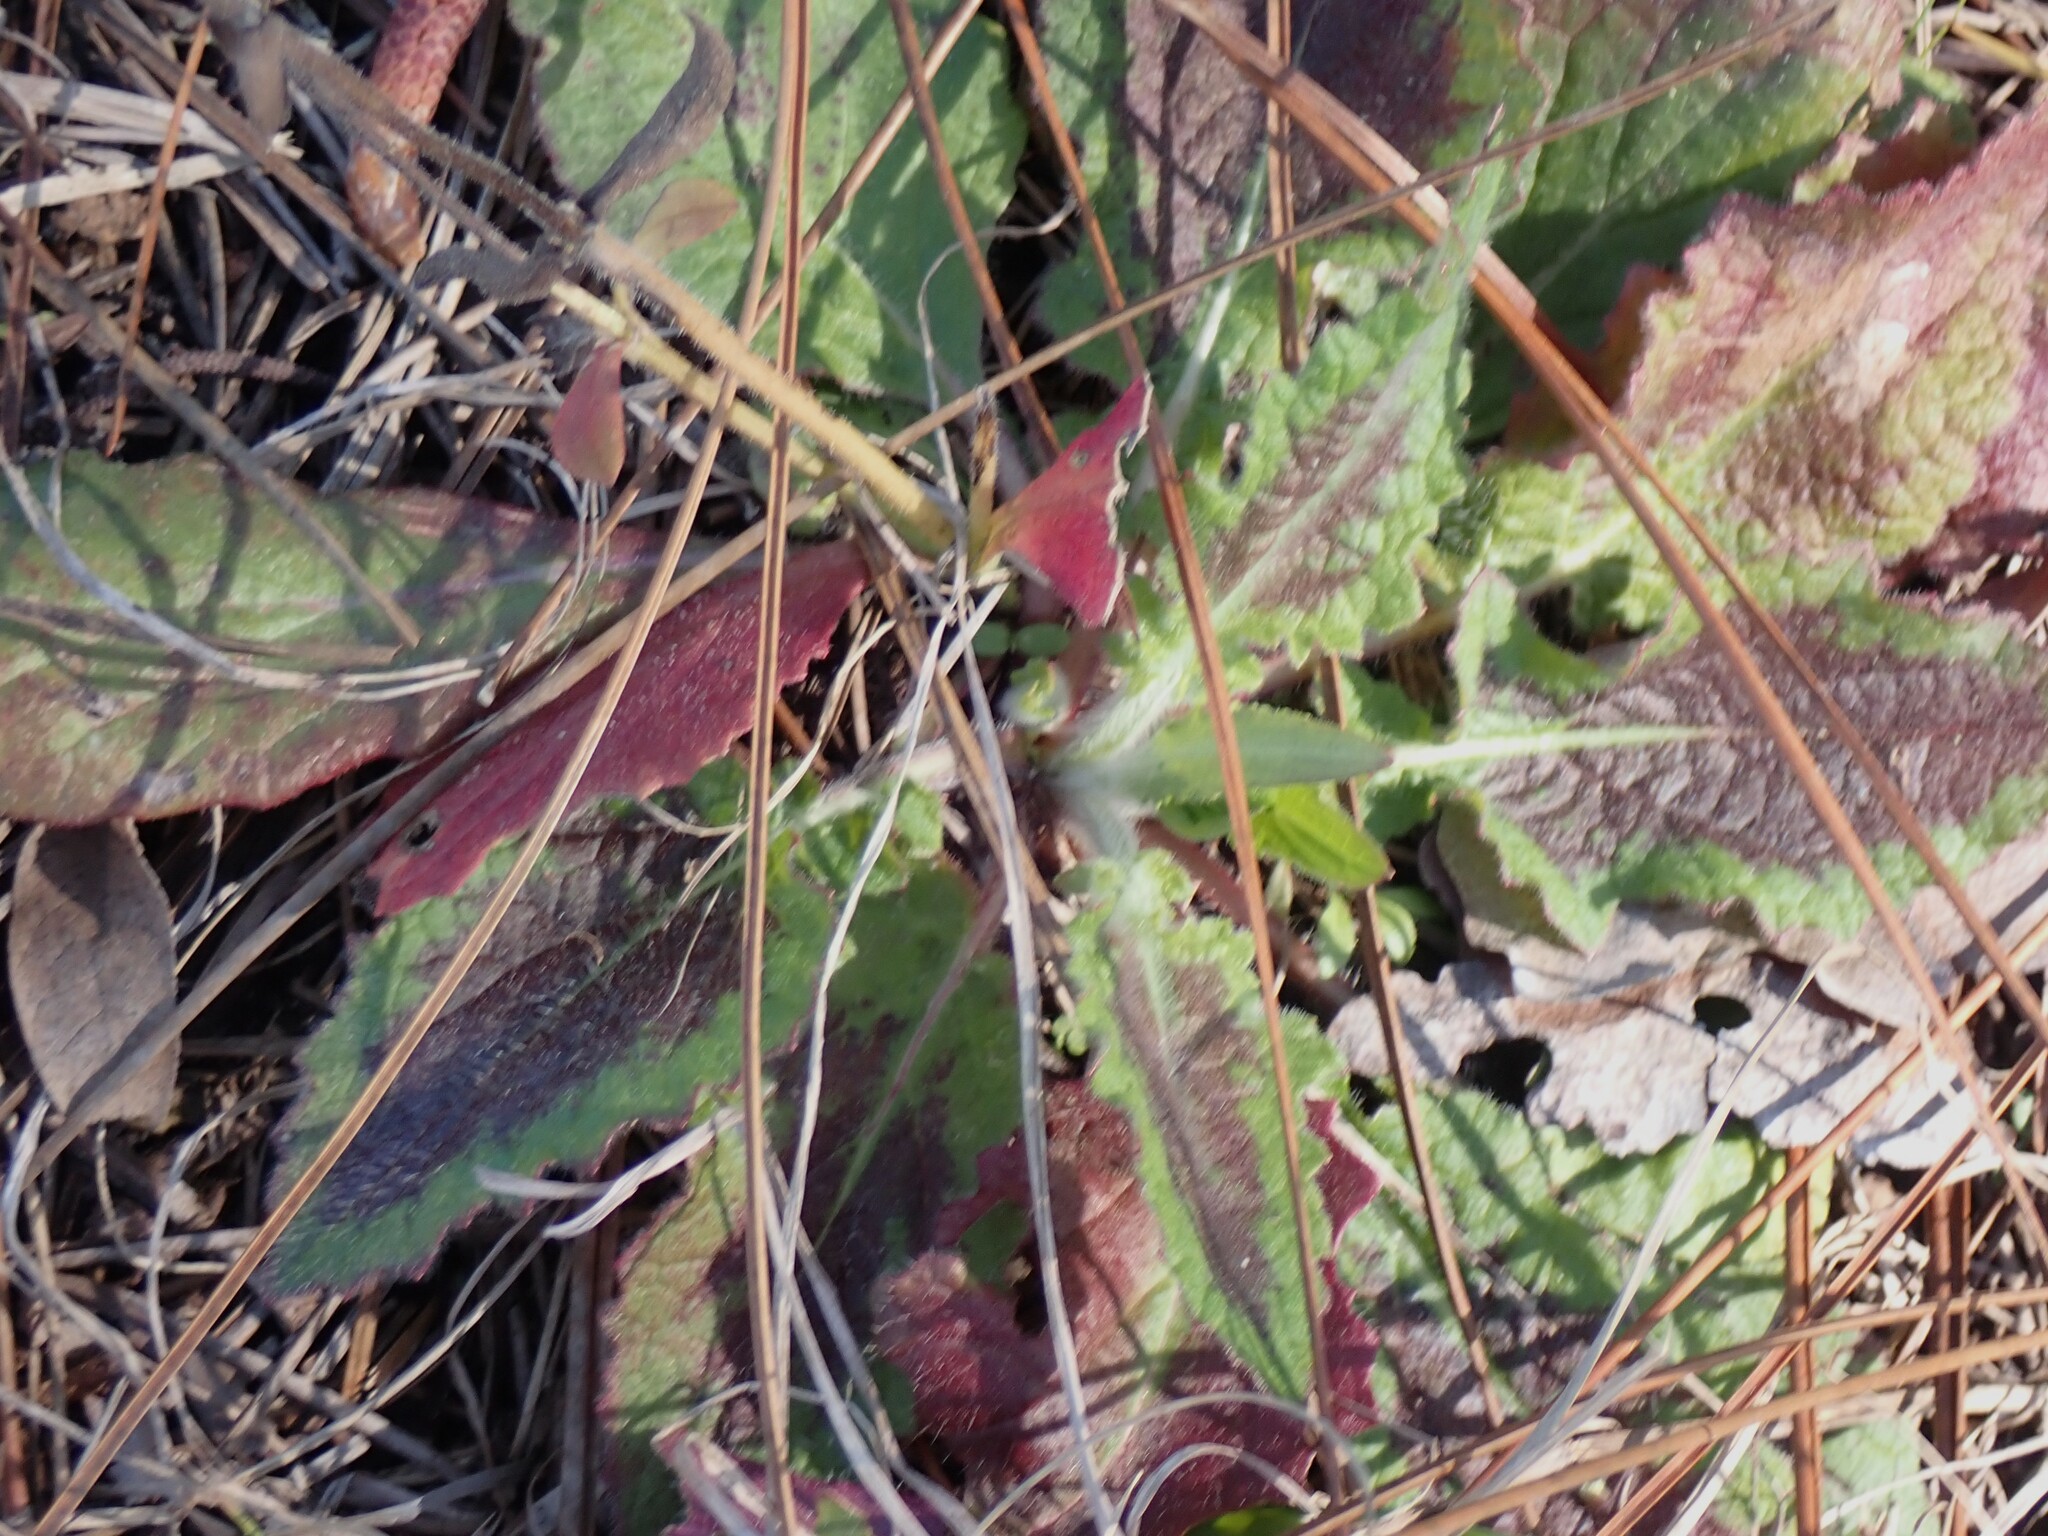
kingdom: Plantae
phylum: Tracheophyta
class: Magnoliopsida
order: Lamiales
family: Lamiaceae
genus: Salvia
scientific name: Salvia lyrata
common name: Cancerweed
